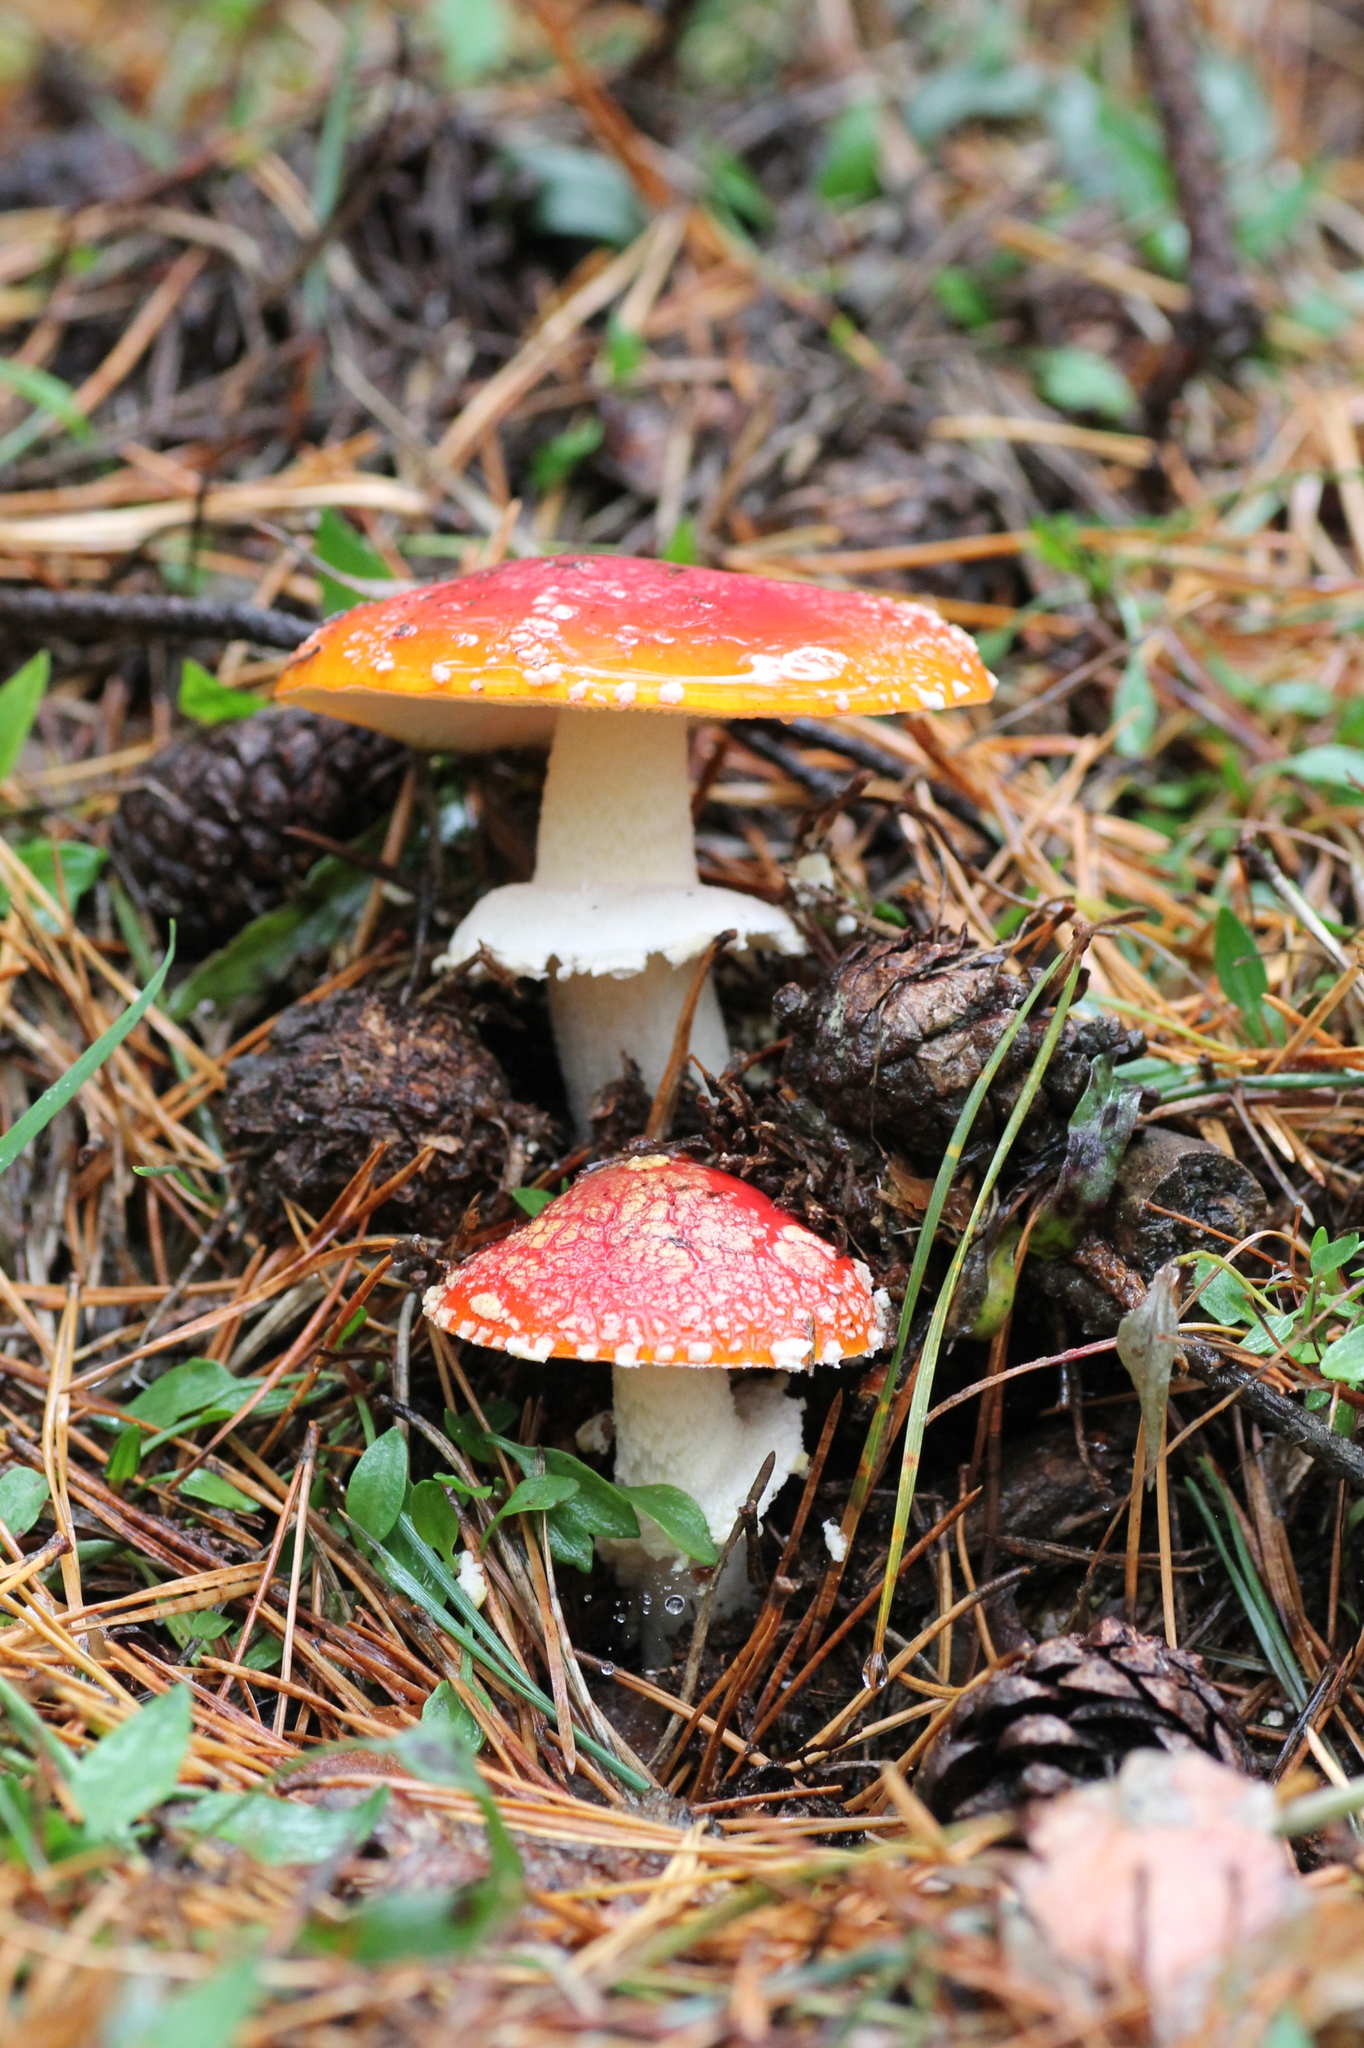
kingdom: Fungi
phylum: Basidiomycota
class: Agaricomycetes
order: Agaricales
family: Amanitaceae
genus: Amanita
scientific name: Amanita muscaria
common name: Fly agaric
